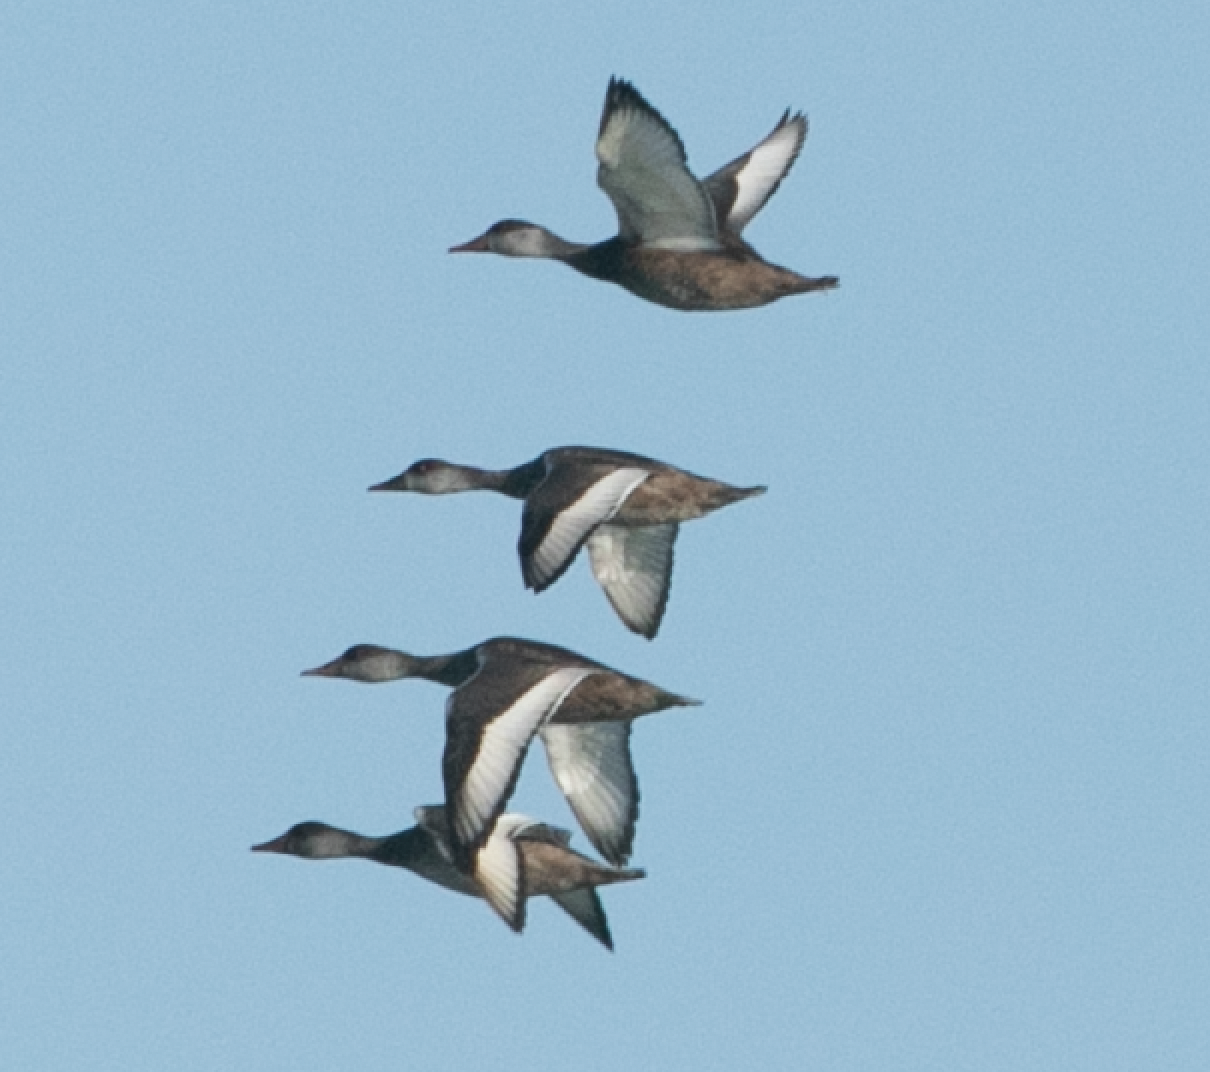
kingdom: Animalia
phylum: Chordata
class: Aves
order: Anseriformes
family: Anatidae
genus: Netta
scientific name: Netta rufina
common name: Red-crested pochard
